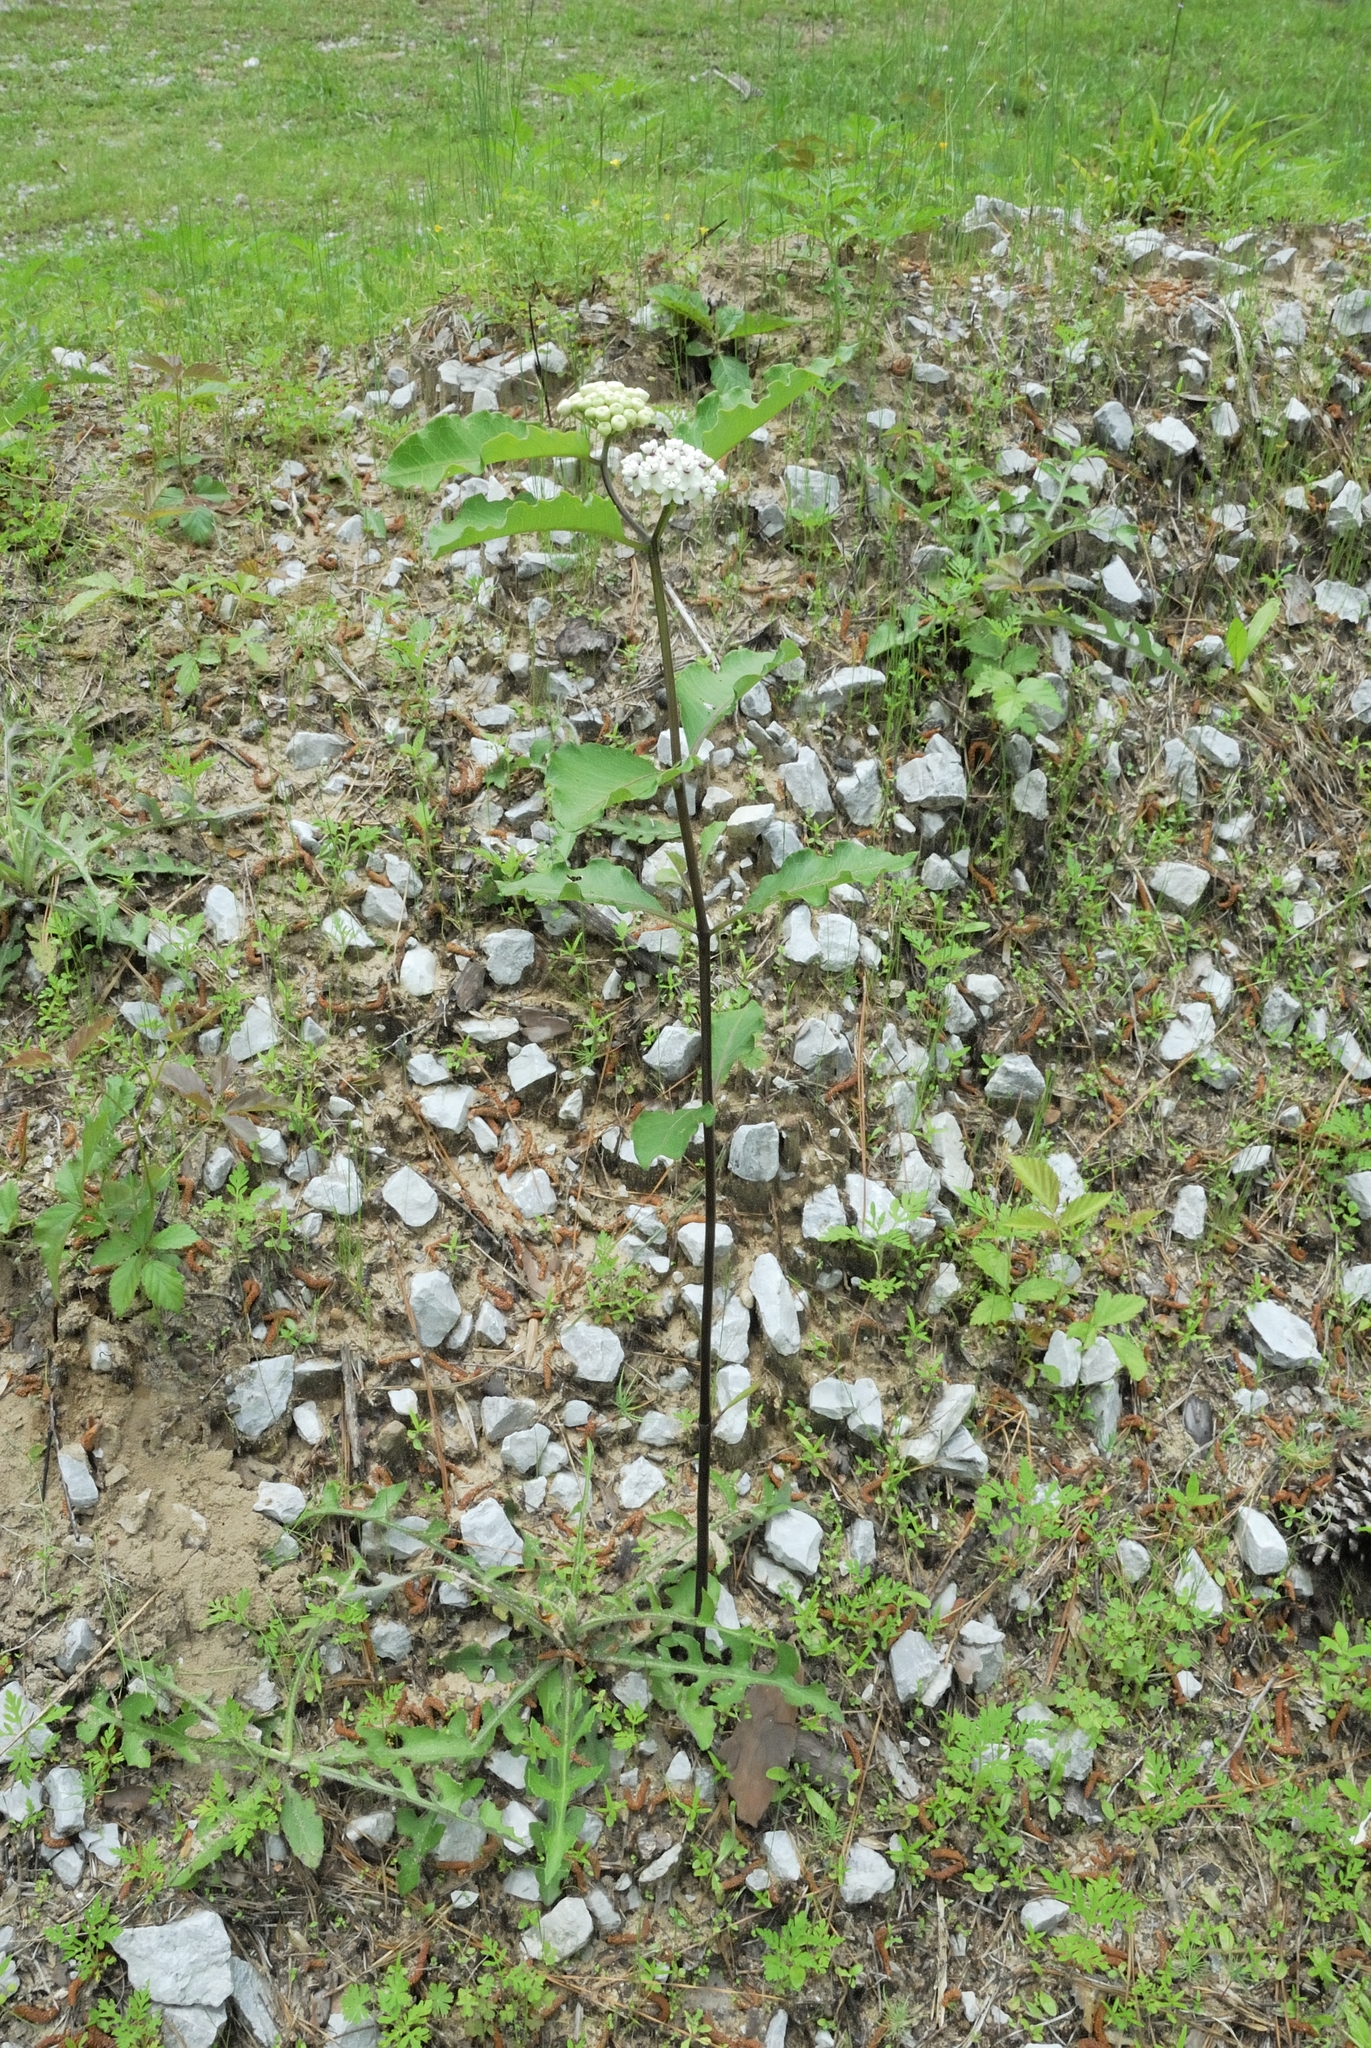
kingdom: Plantae
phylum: Tracheophyta
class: Magnoliopsida
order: Gentianales
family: Apocynaceae
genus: Asclepias
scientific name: Asclepias variegata
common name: Variegated milkweed
